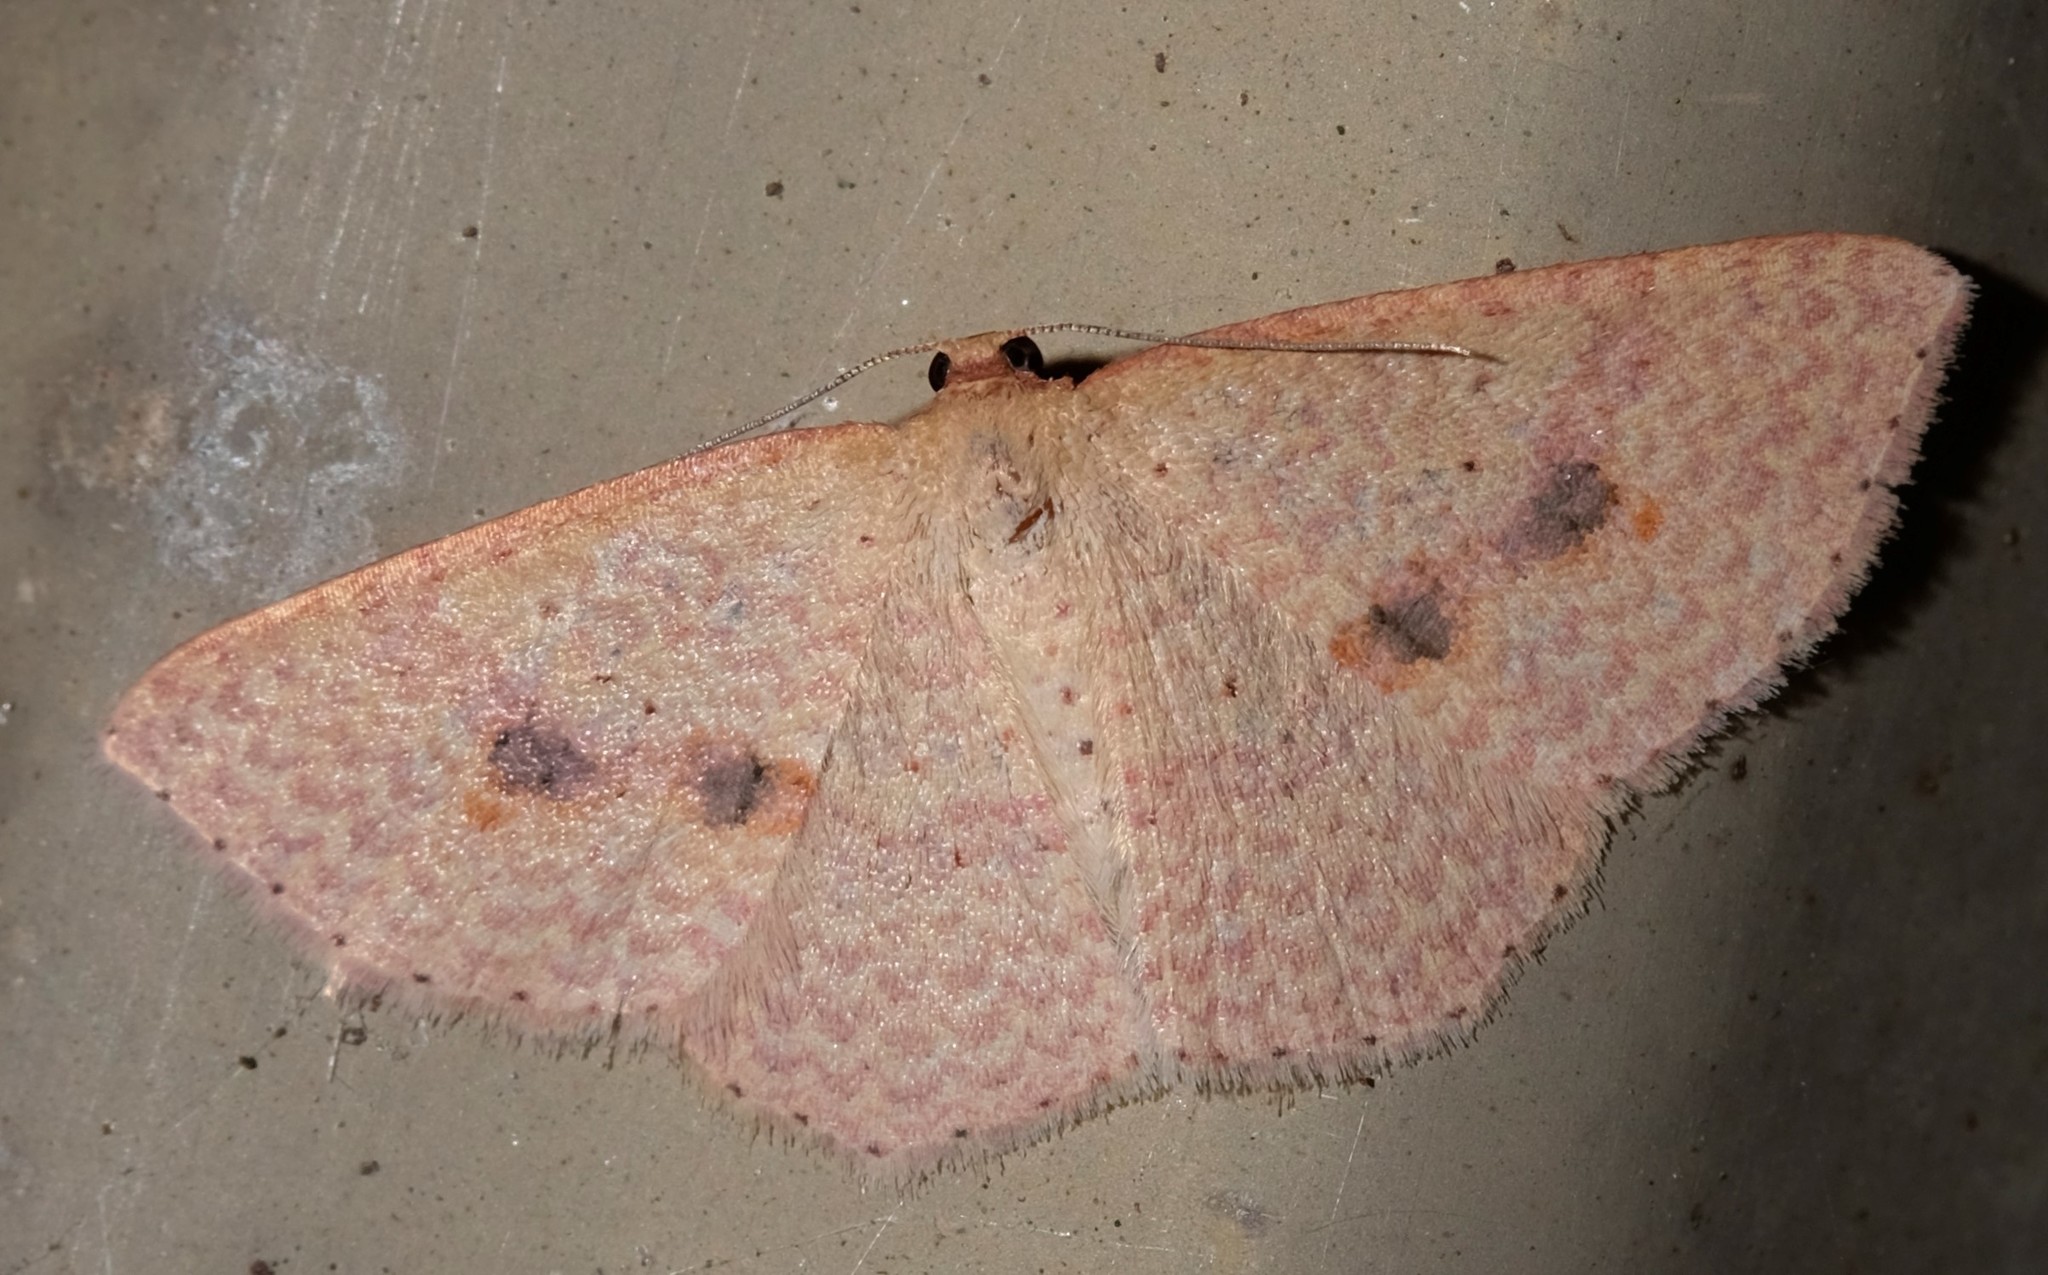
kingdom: Animalia
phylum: Arthropoda
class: Insecta
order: Lepidoptera
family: Geometridae
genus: Epicyme
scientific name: Epicyme rubropunctaria
